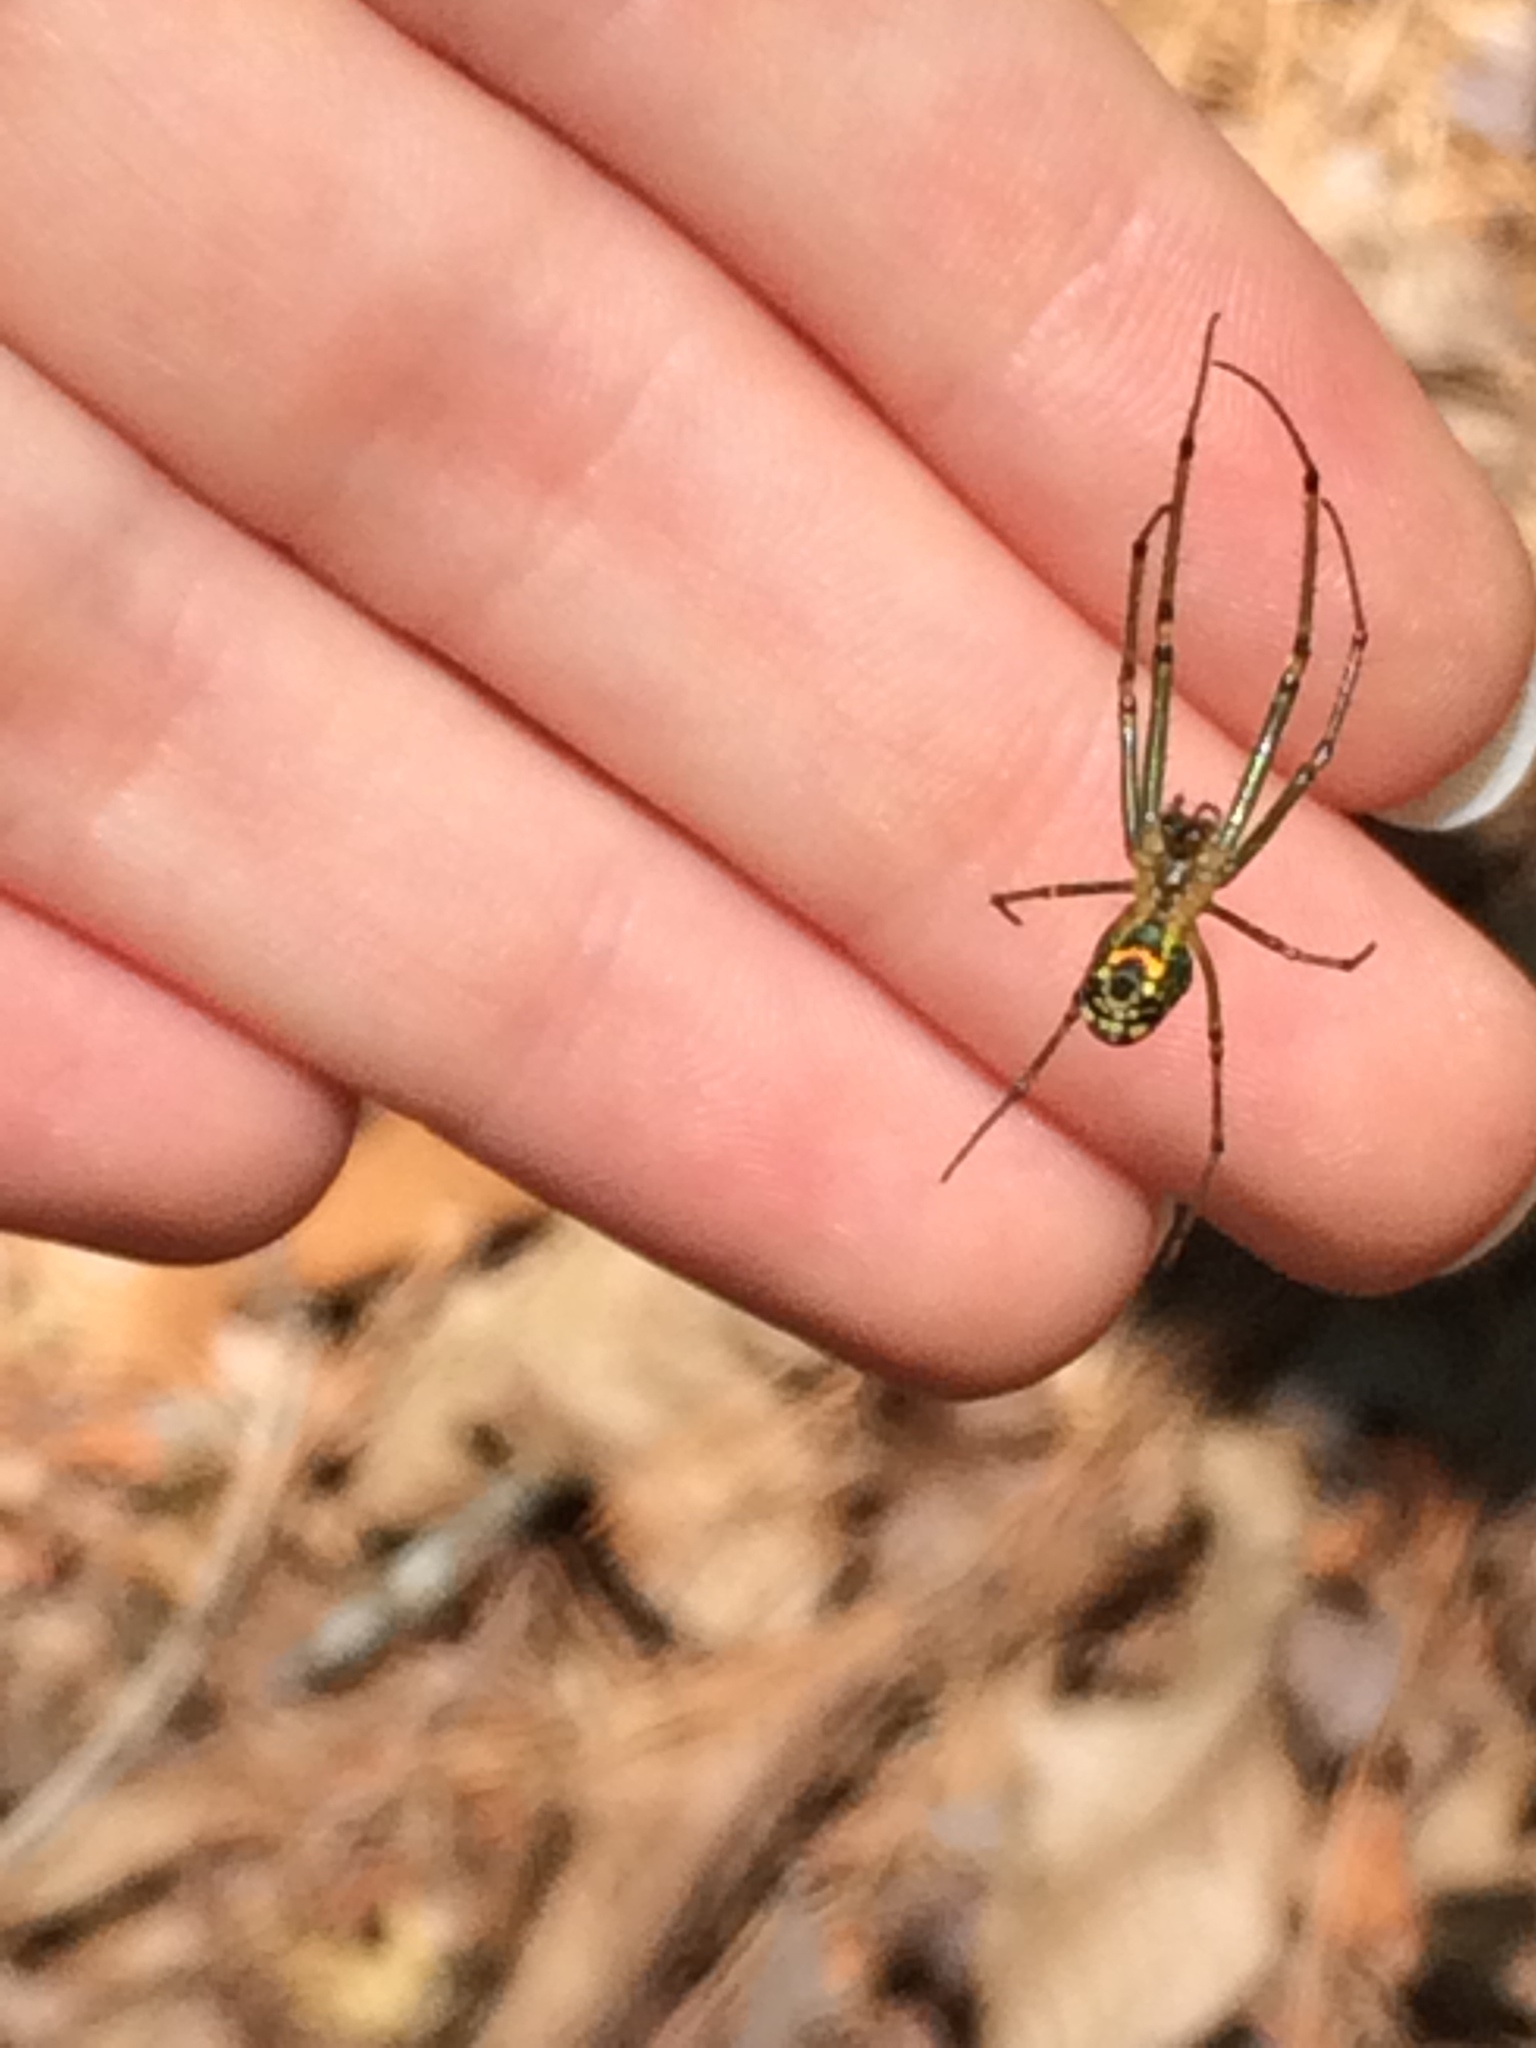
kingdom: Animalia
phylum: Arthropoda
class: Arachnida
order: Araneae
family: Tetragnathidae
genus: Leucauge
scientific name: Leucauge
